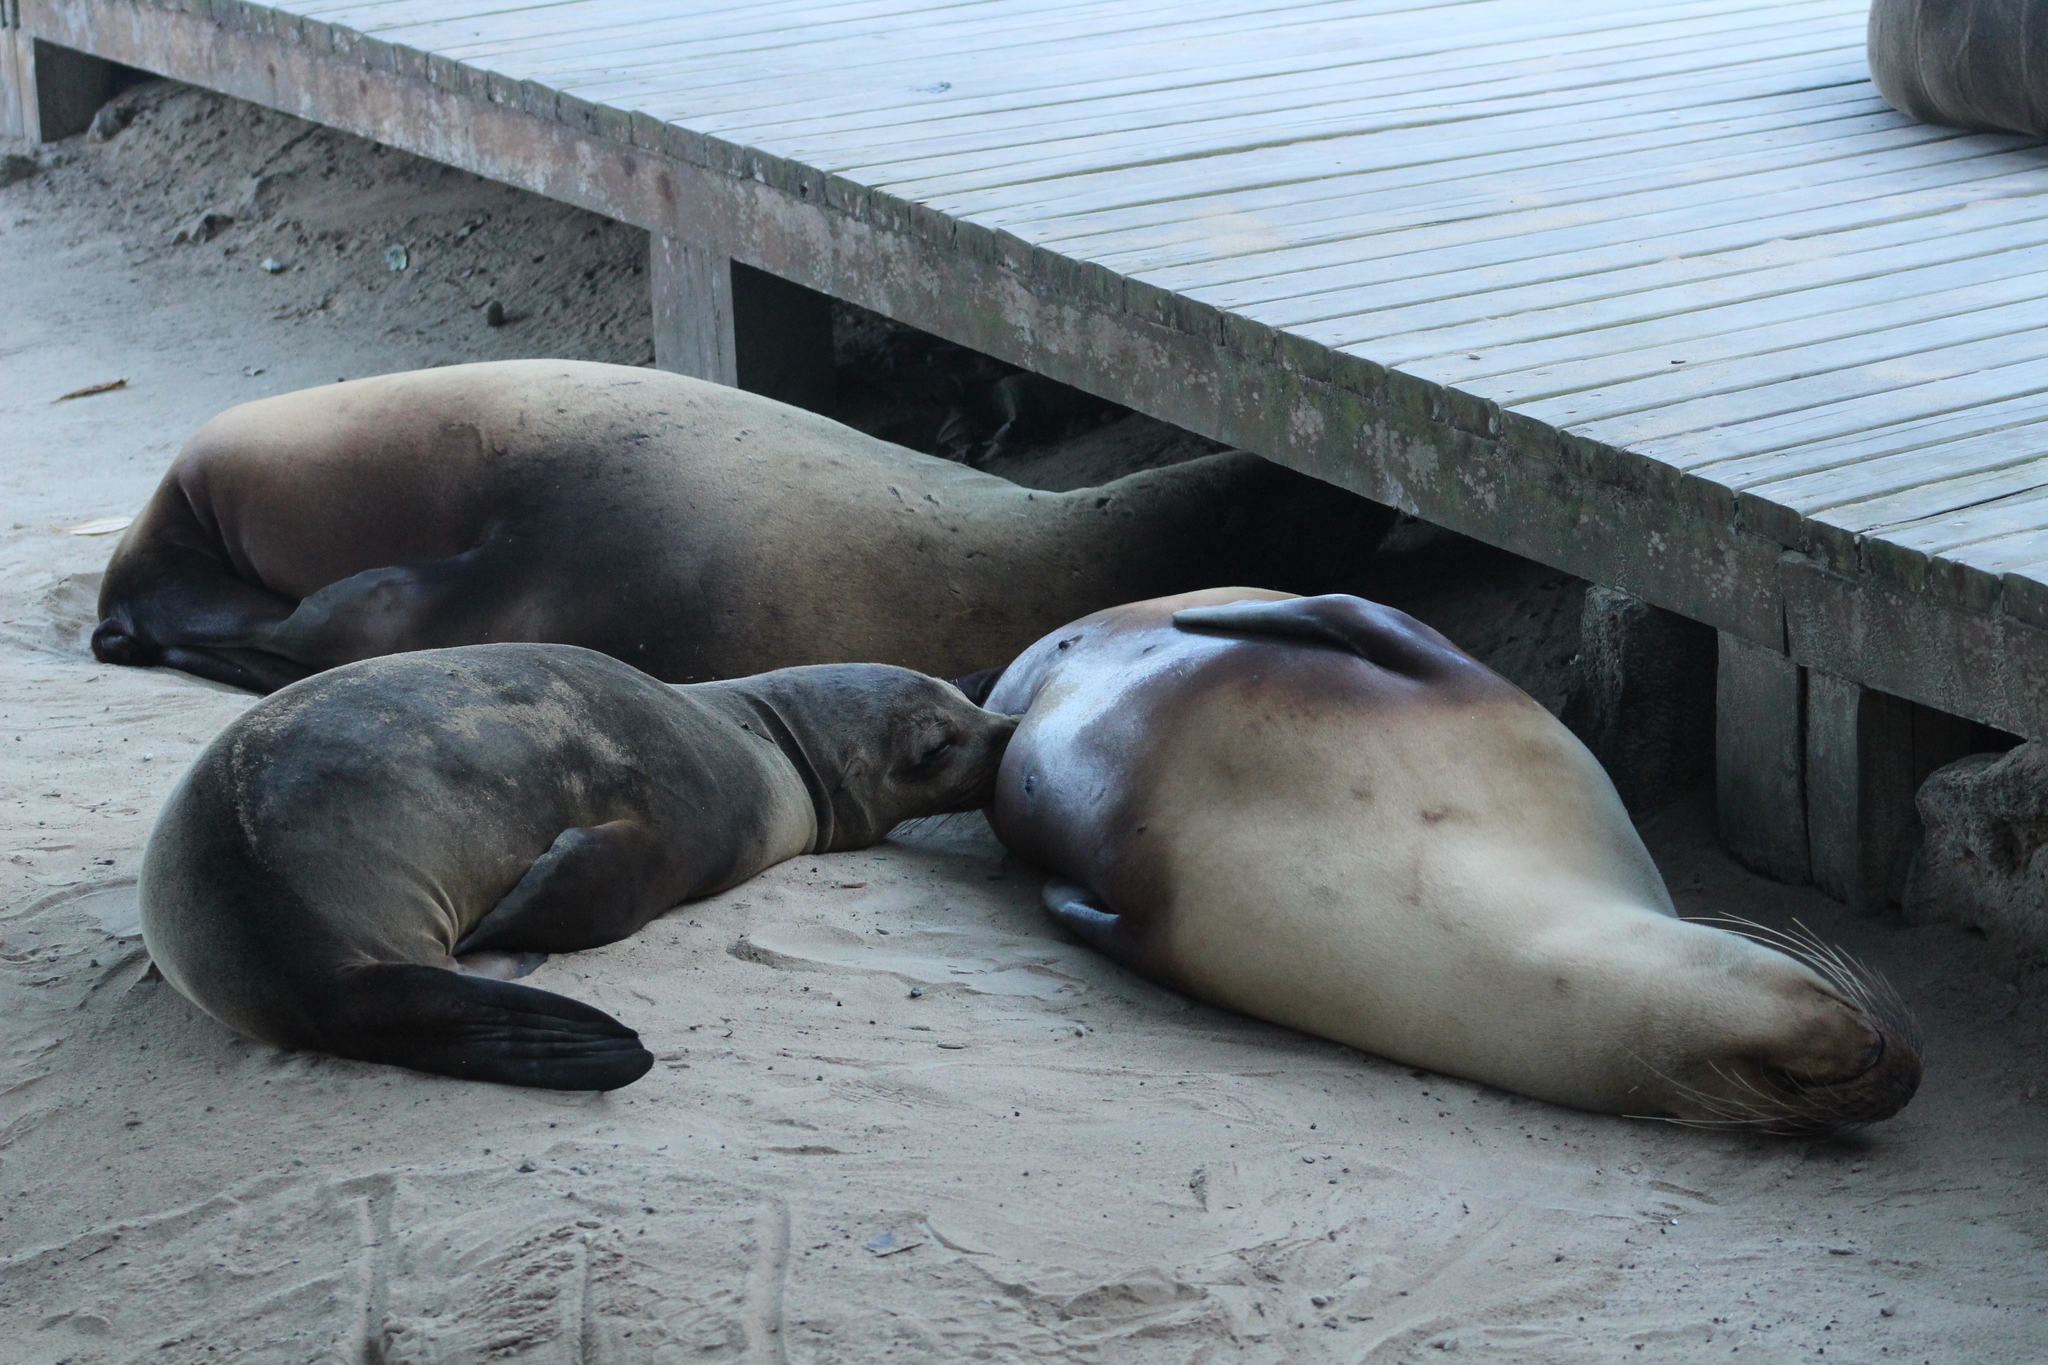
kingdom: Animalia
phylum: Chordata
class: Mammalia
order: Carnivora
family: Otariidae
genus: Zalophus
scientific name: Zalophus wollebaeki
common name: Galapagos sea lion
